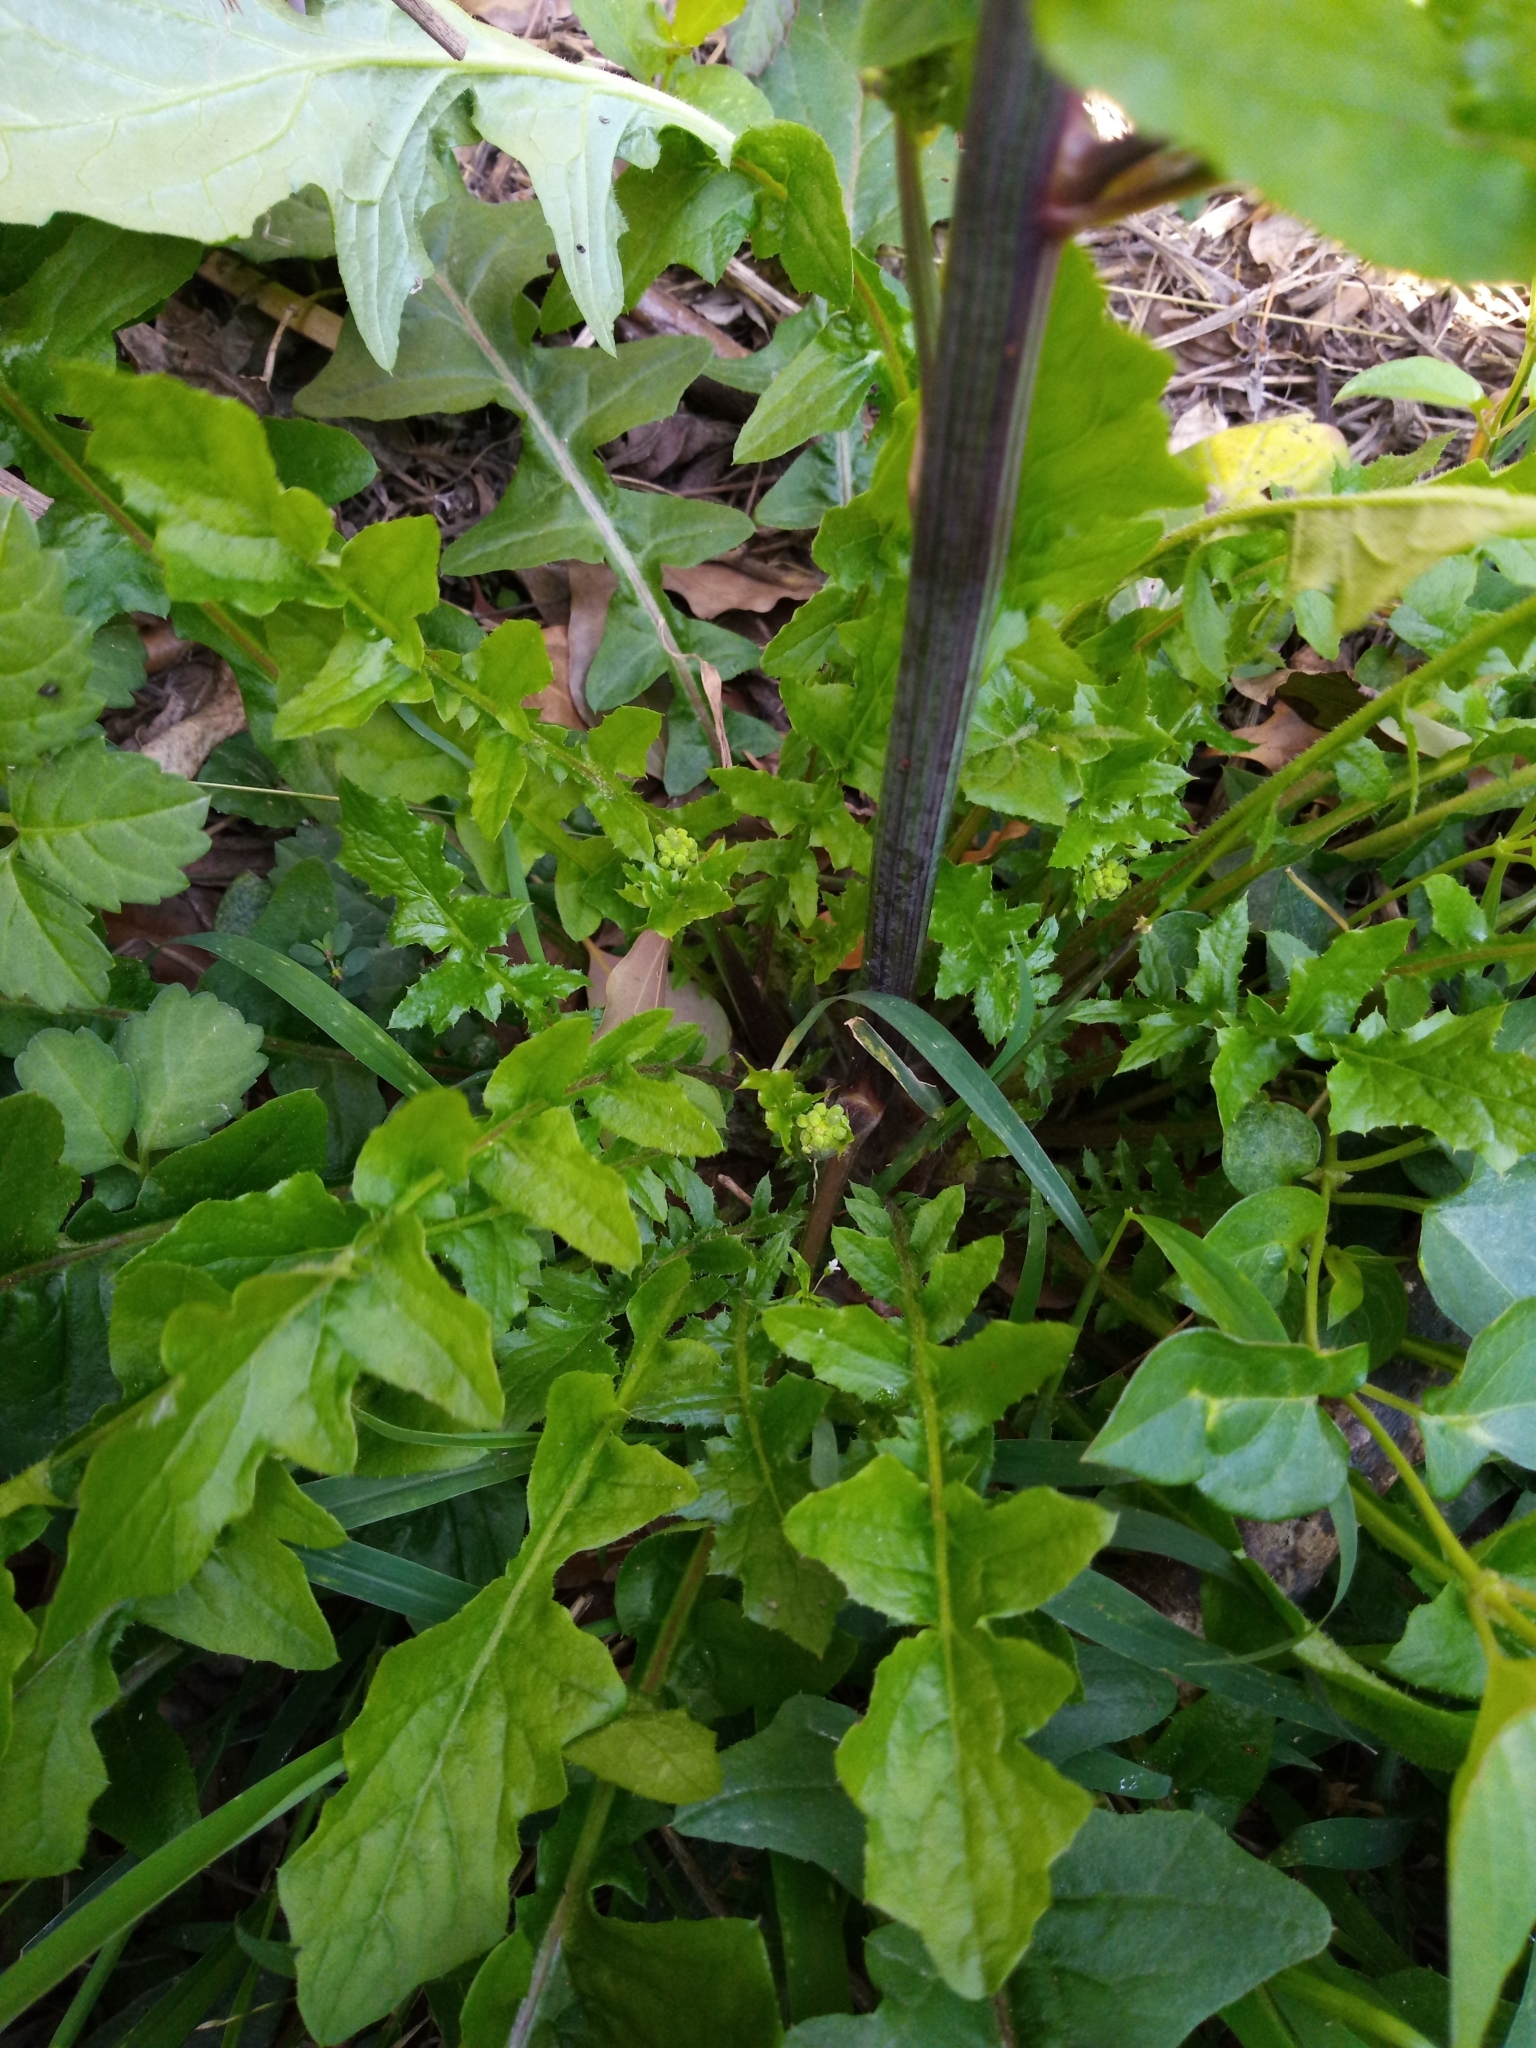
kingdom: Plantae
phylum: Tracheophyta
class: Magnoliopsida
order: Asterales
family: Asteraceae
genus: Youngia
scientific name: Youngia japonica
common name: Oriental false hawksbeard
